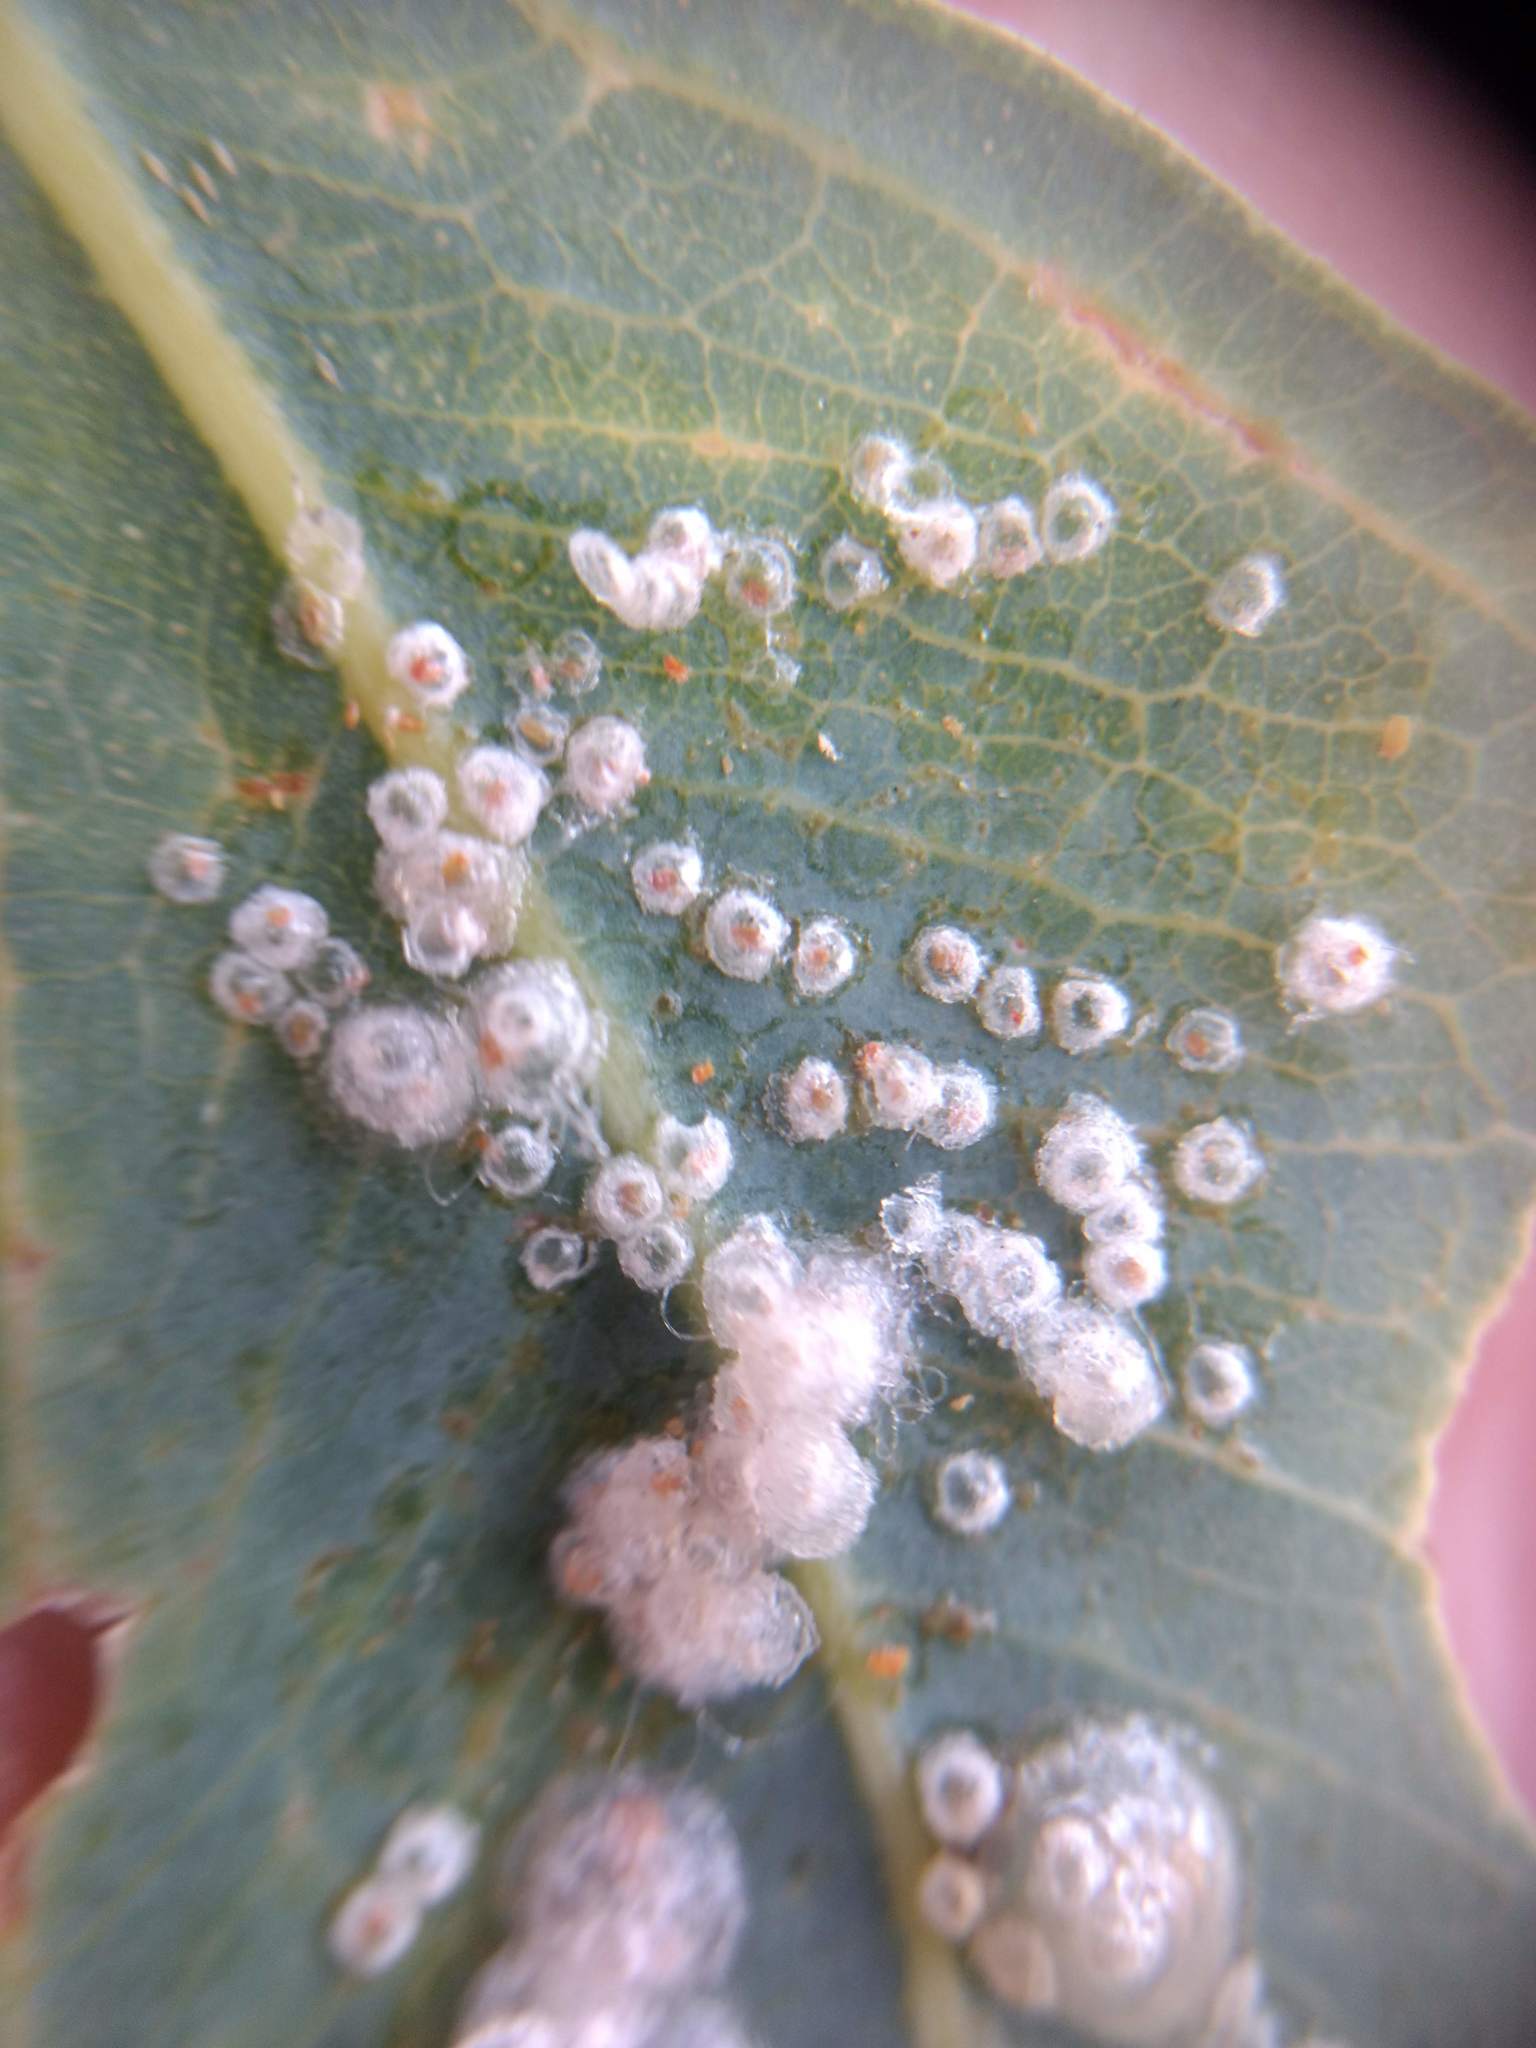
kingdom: Animalia
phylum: Arthropoda
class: Insecta
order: Hemiptera
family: Aphalaridae
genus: Glycaspis
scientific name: Glycaspis brimblecombei
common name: Red gum lerp psyllid
